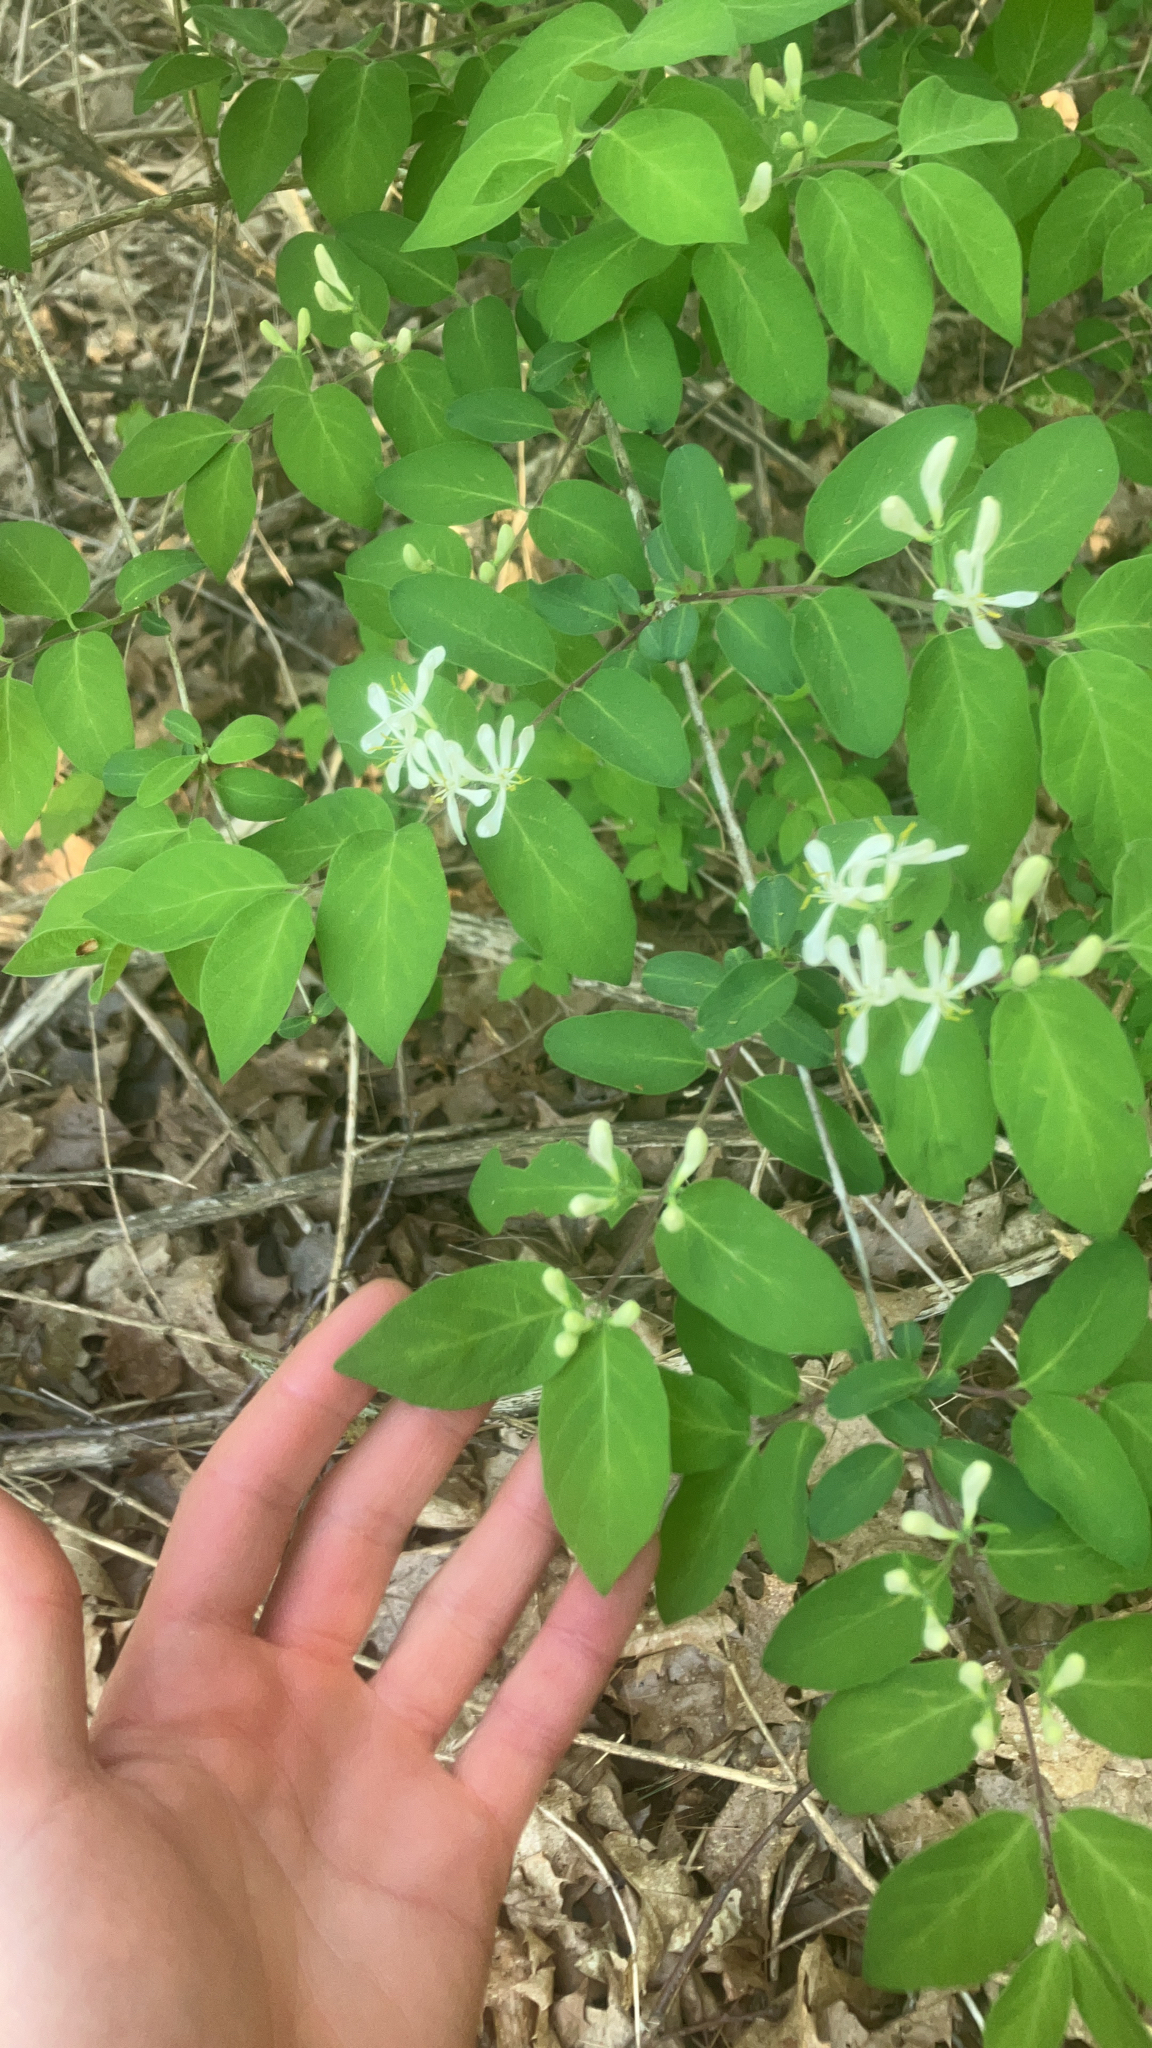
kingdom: Plantae
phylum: Tracheophyta
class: Magnoliopsida
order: Dipsacales
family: Caprifoliaceae
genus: Lonicera
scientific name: Lonicera
